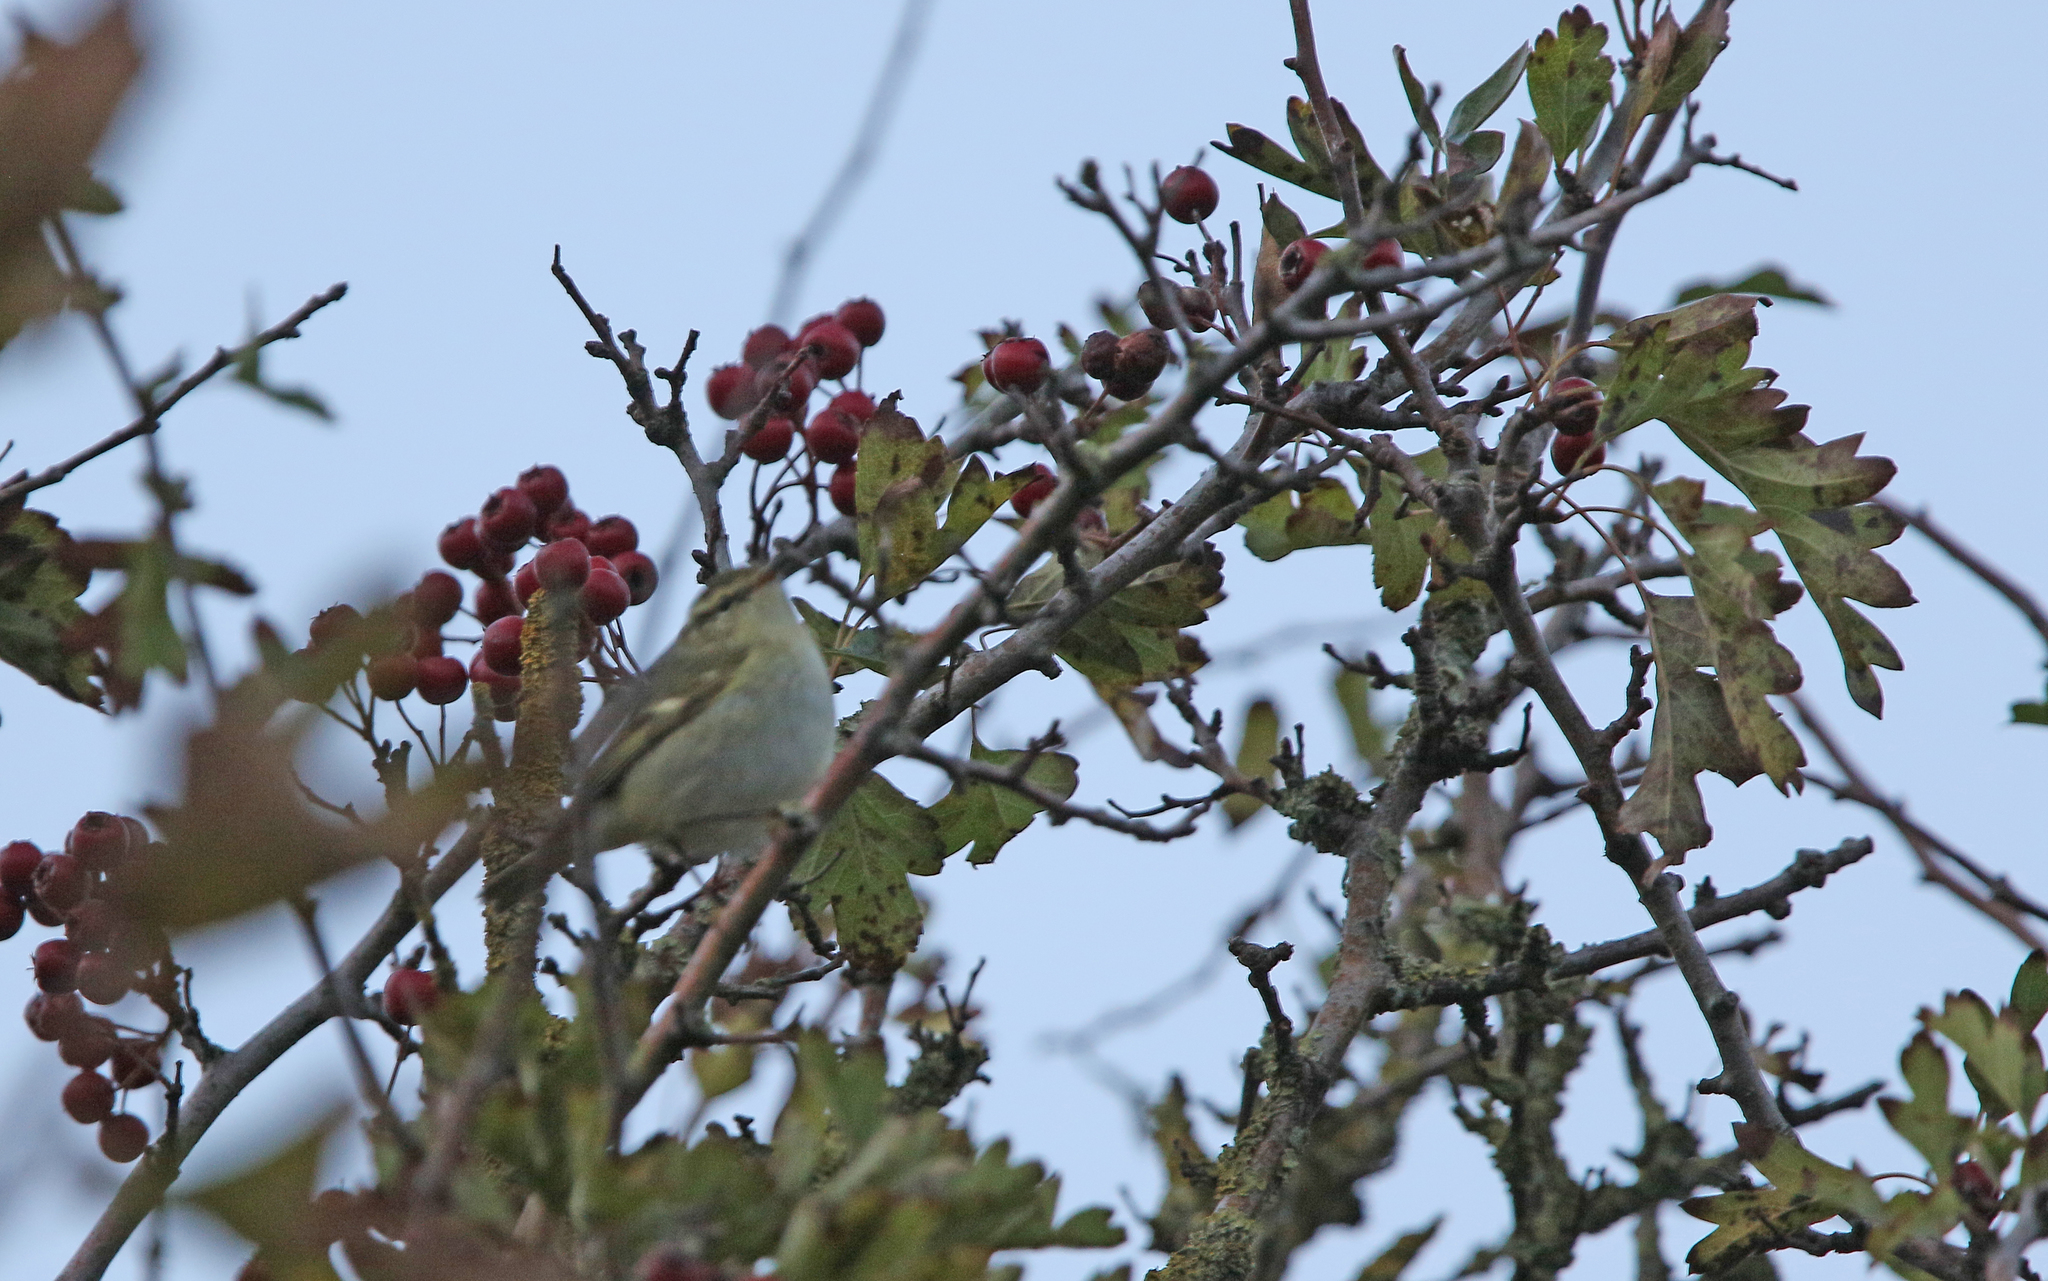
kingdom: Animalia
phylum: Chordata
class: Aves
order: Passeriformes
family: Phylloscopidae
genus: Phylloscopus
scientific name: Phylloscopus inornatus
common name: Yellow-browed warbler
